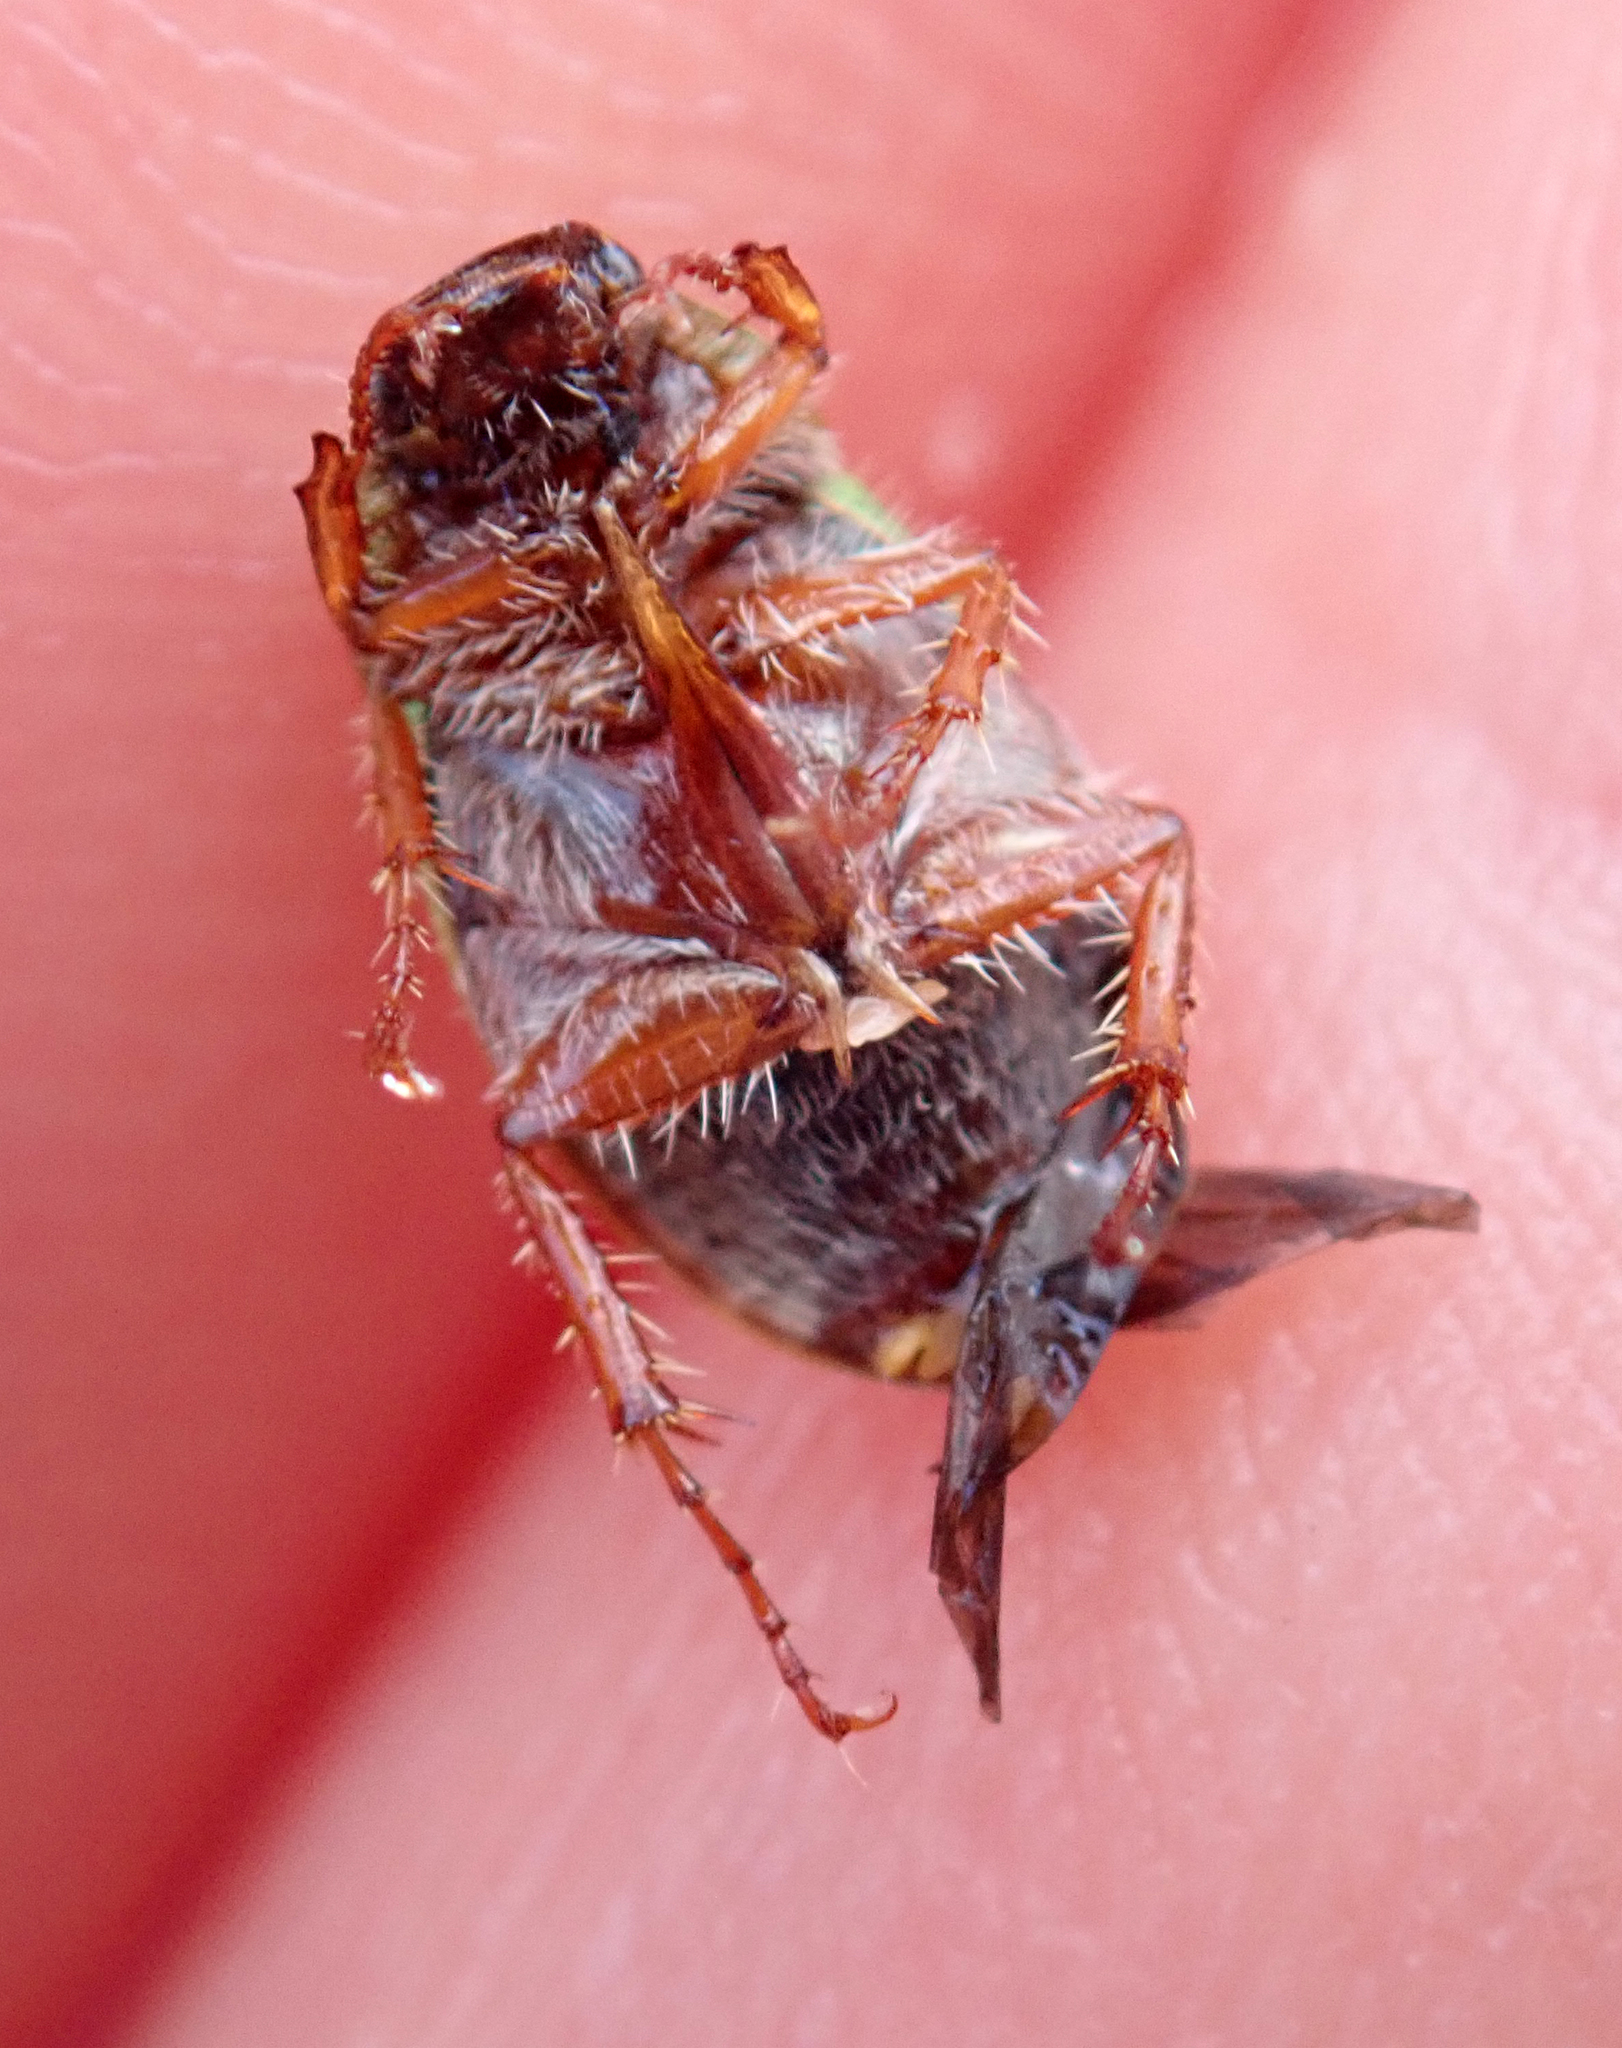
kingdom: Animalia
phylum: Arthropoda
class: Insecta
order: Coleoptera
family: Scarabaeidae
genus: Pyronota
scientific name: Pyronota festiva
